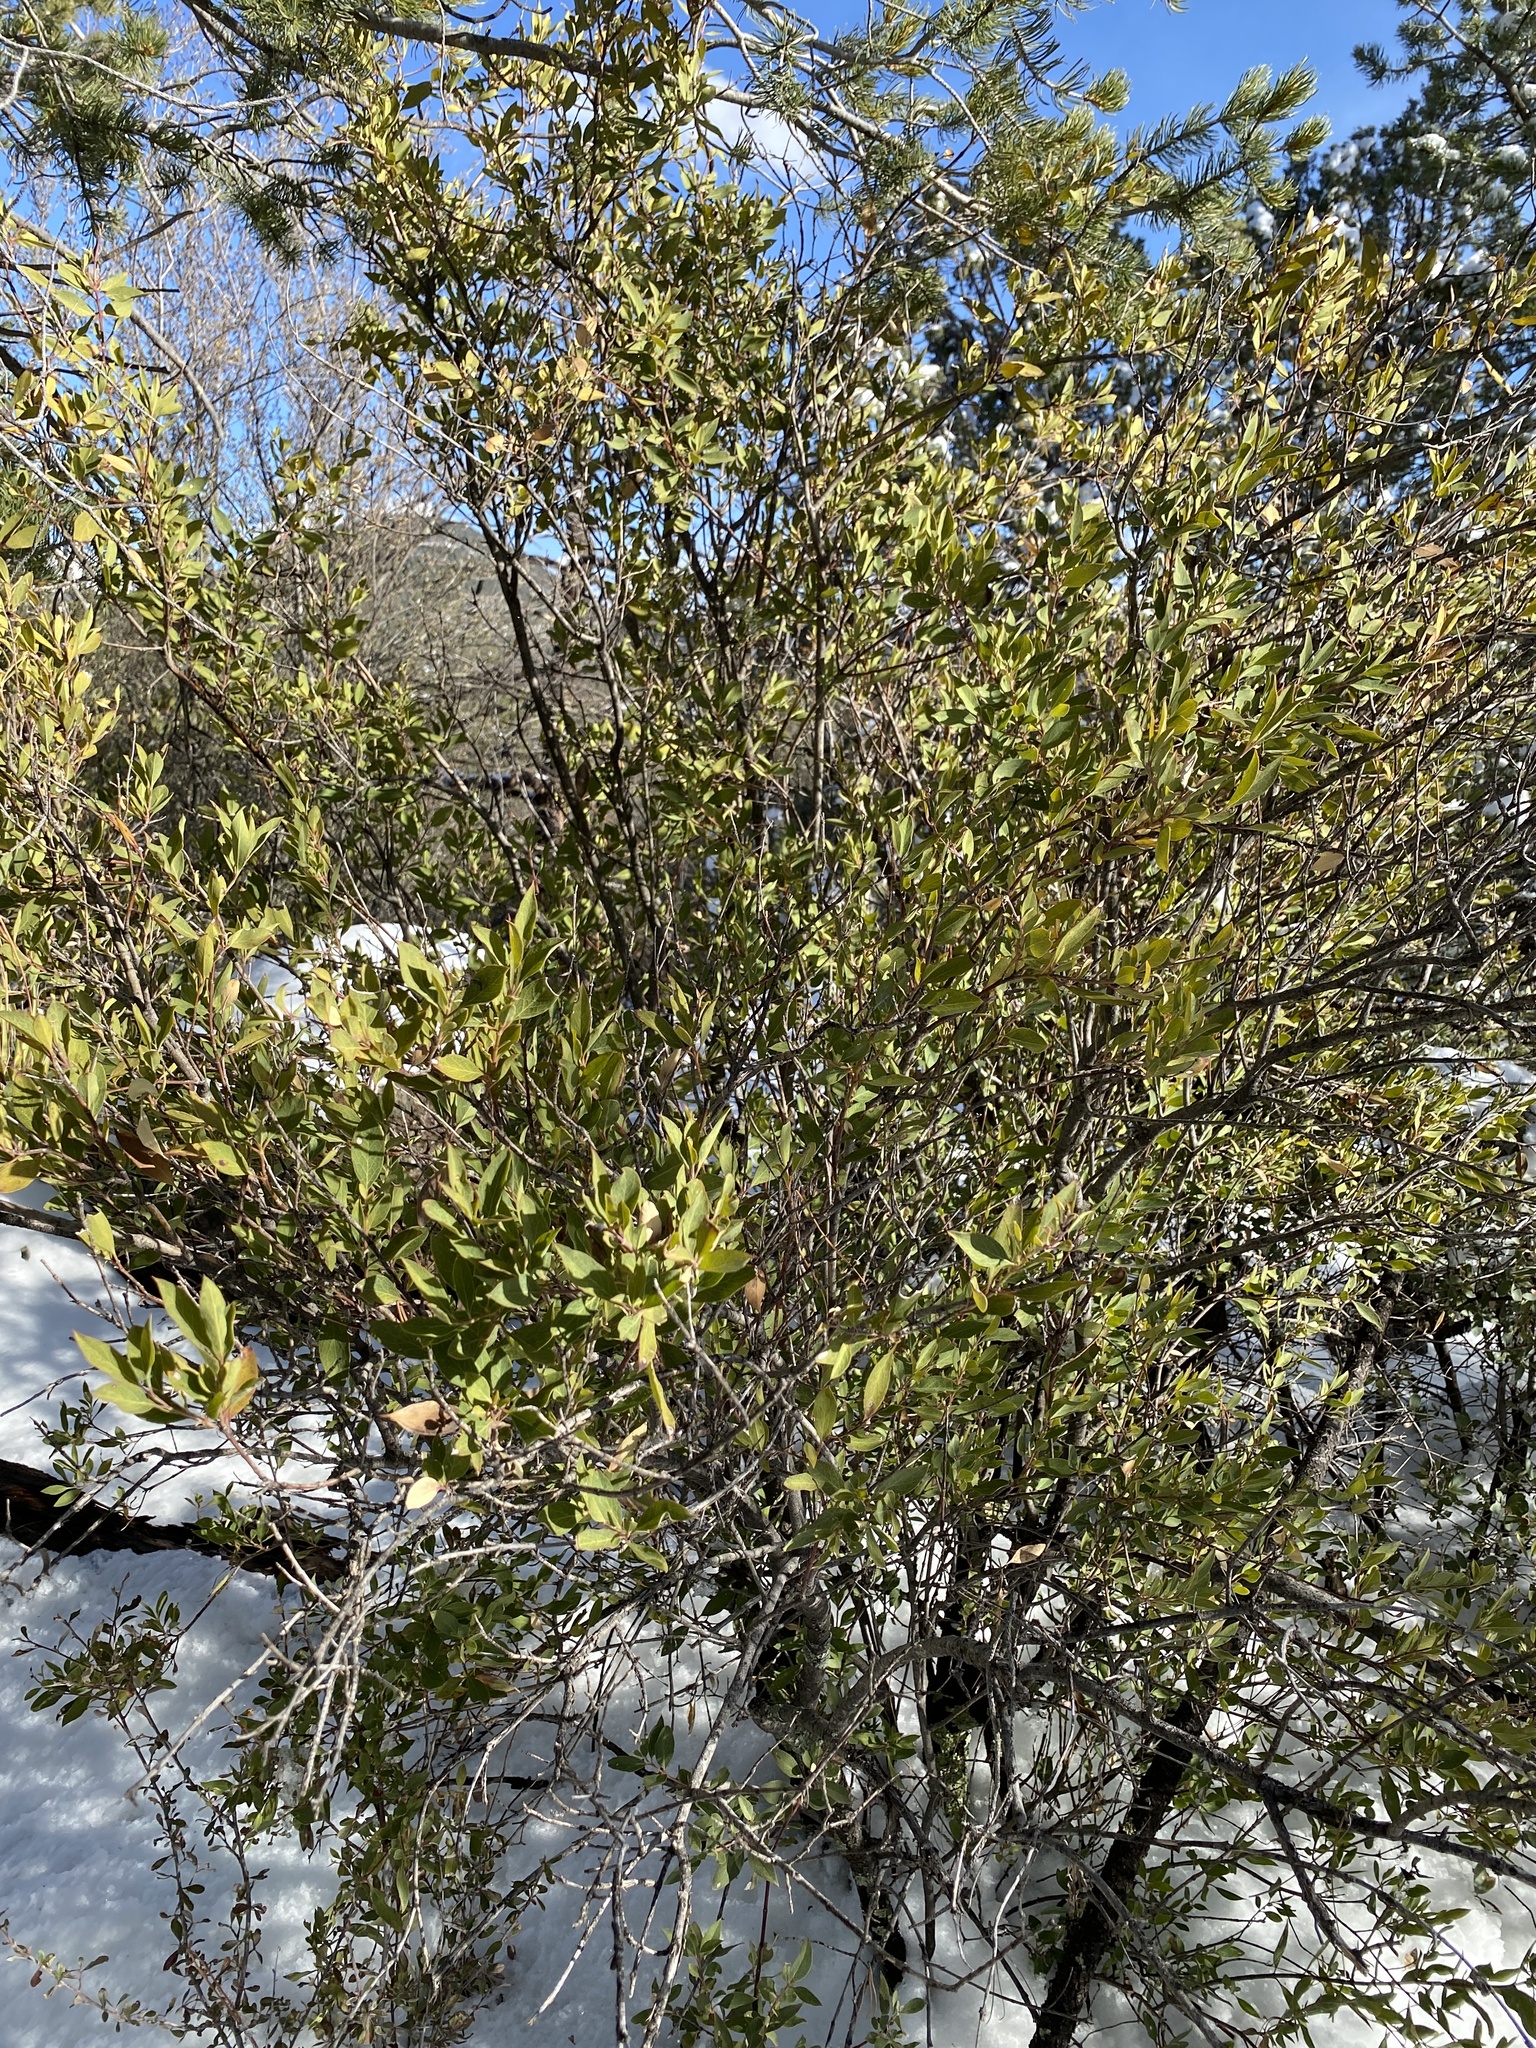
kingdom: Plantae
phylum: Tracheophyta
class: Magnoliopsida
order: Garryales
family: Garryaceae
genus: Garrya
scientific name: Garrya wrightii
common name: Wright's silktassel
